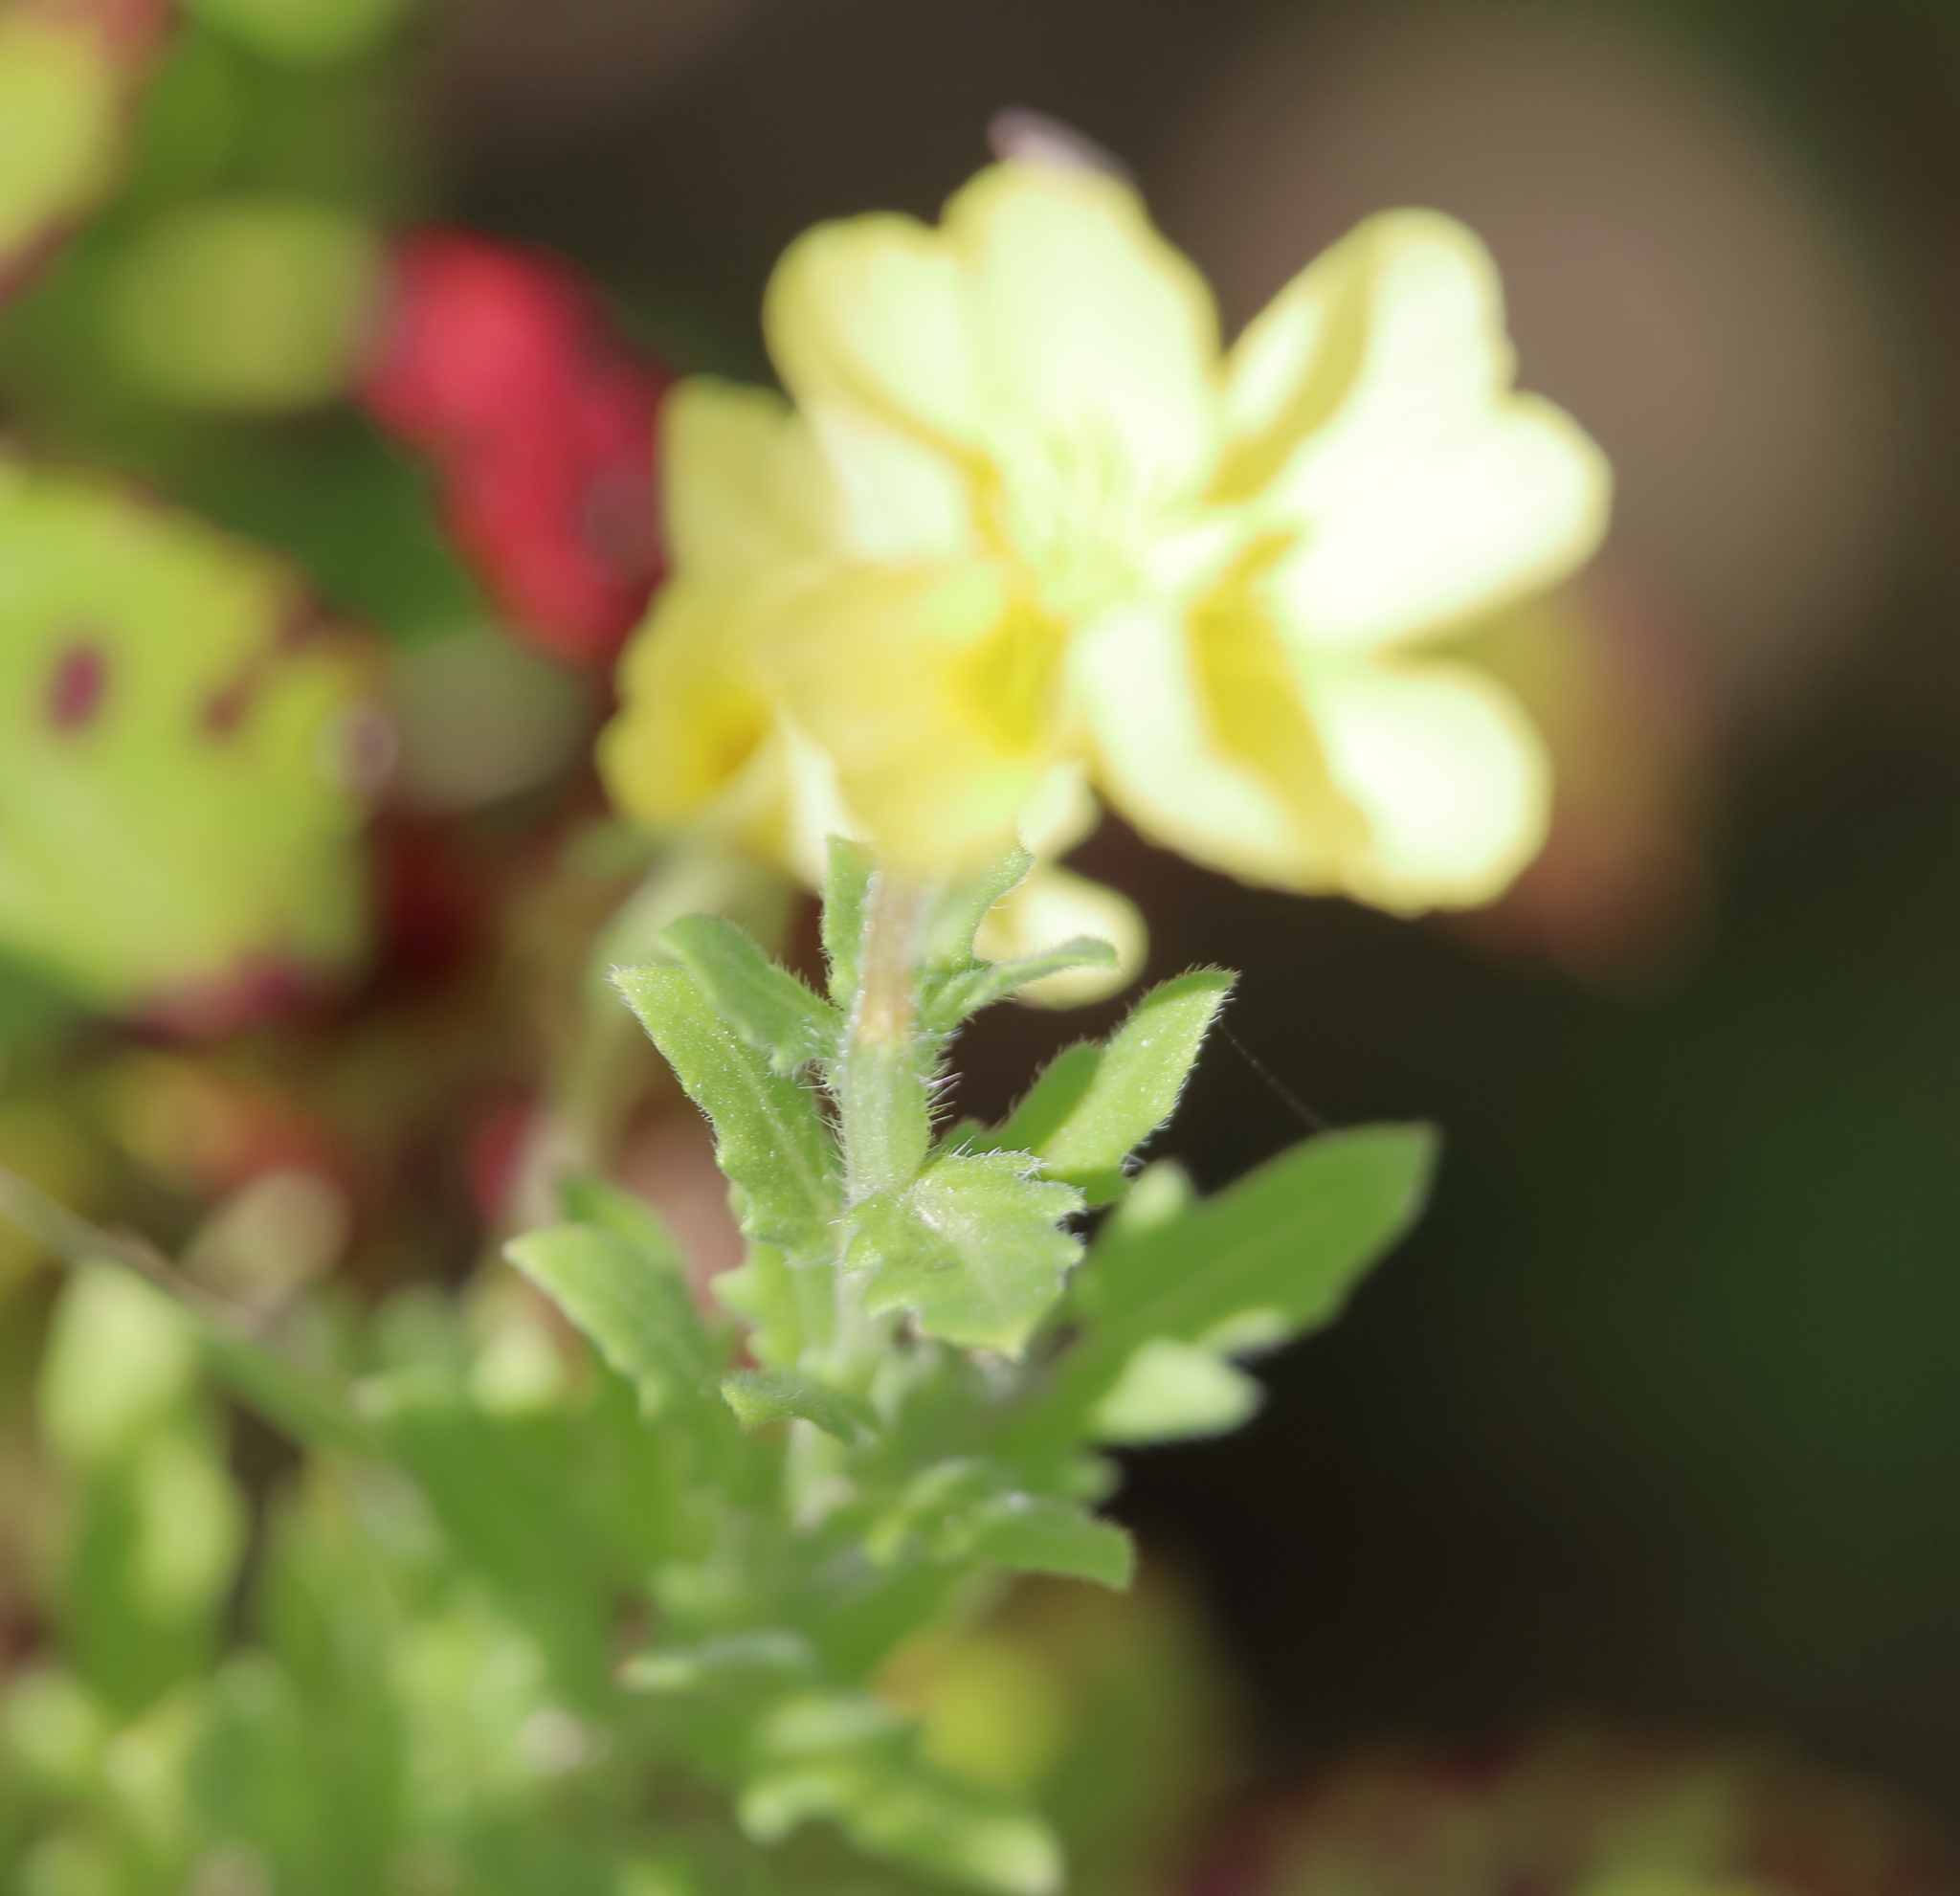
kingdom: Plantae
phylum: Tracheophyta
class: Magnoliopsida
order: Myrtales
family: Onagraceae
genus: Oenothera
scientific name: Oenothera laciniata
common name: Cut-leaved evening-primrose
